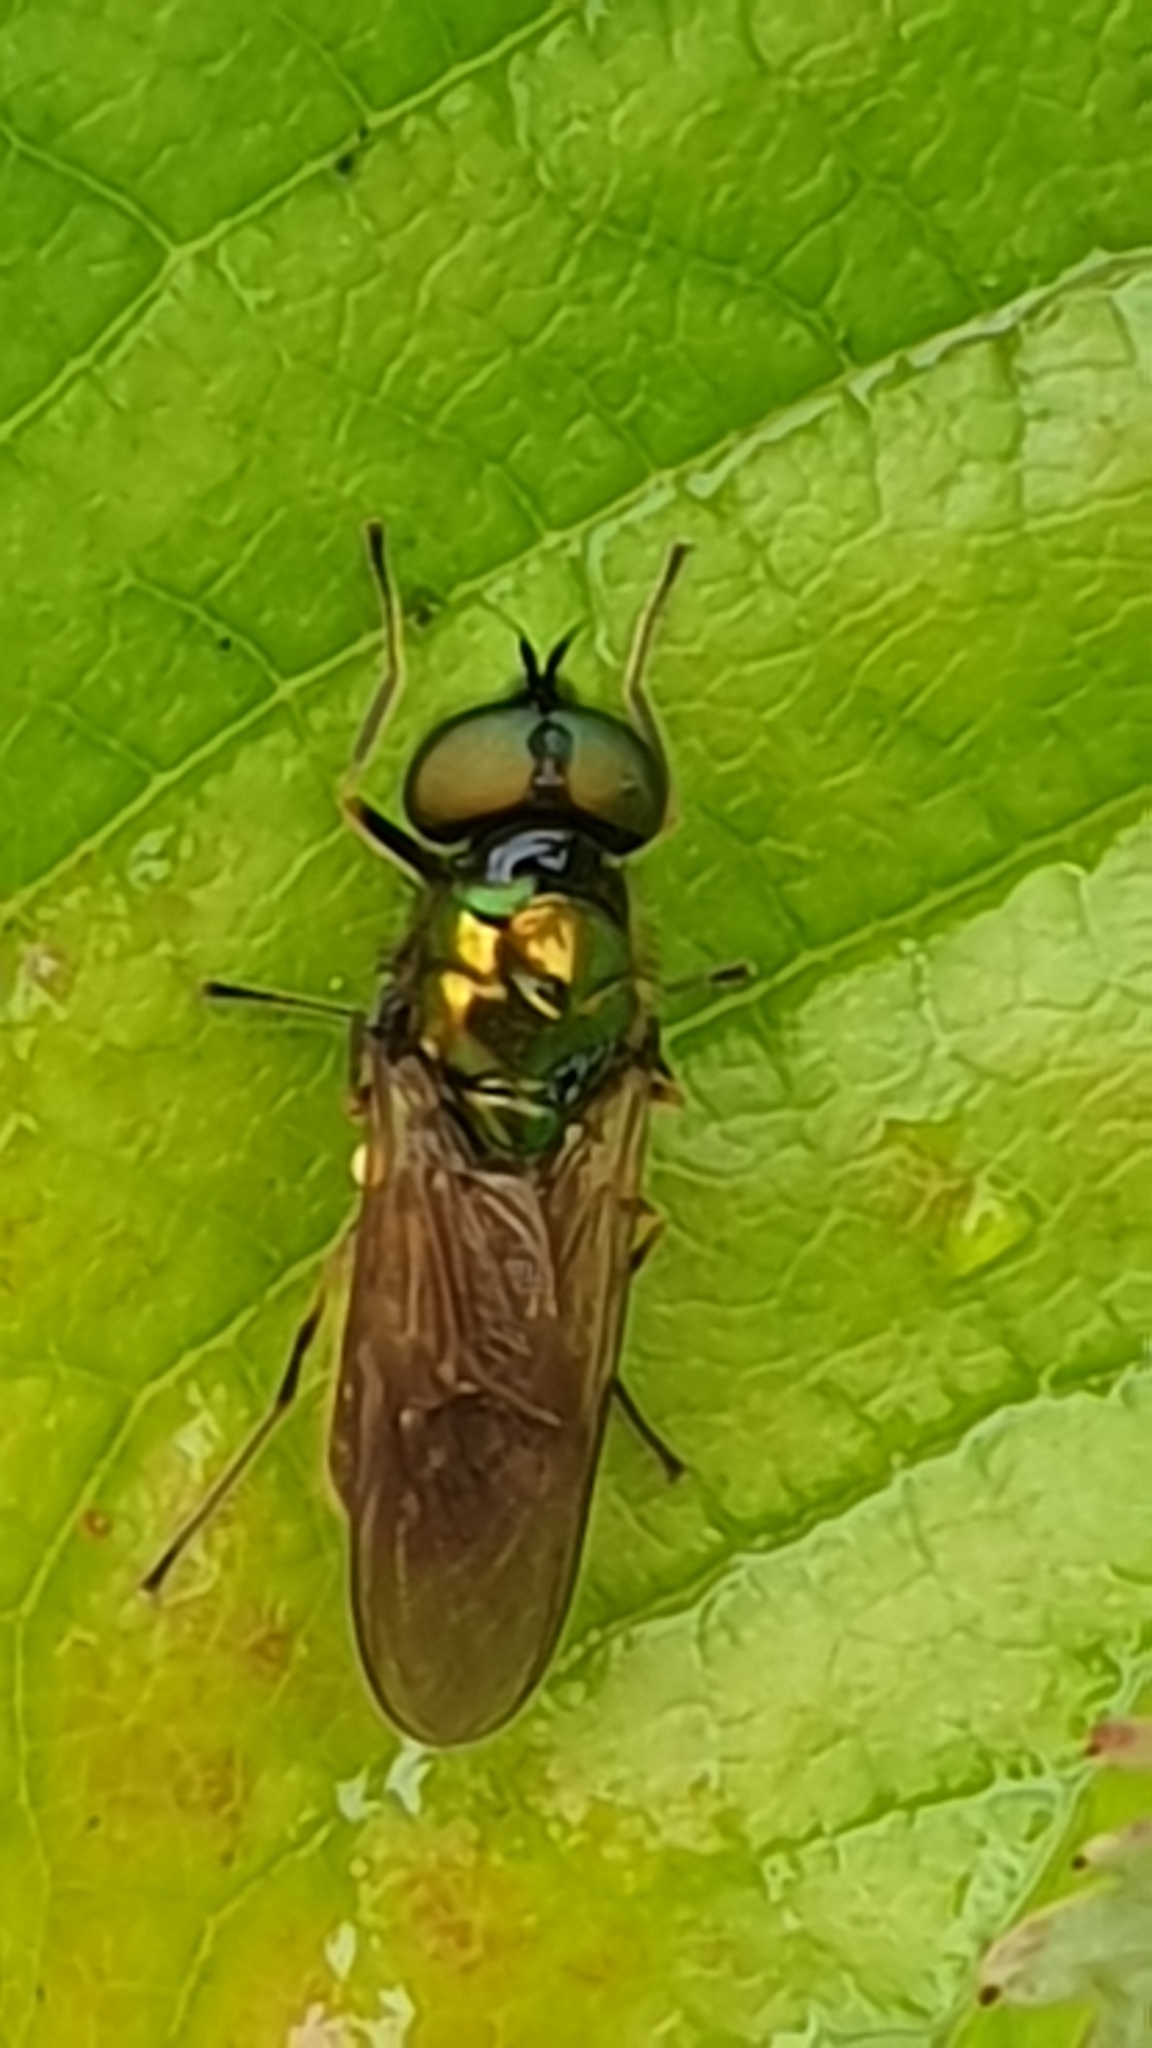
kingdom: Animalia
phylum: Arthropoda
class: Insecta
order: Diptera
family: Stratiomyidae
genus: Chloromyia
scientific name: Chloromyia formosa
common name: Soldier fly
